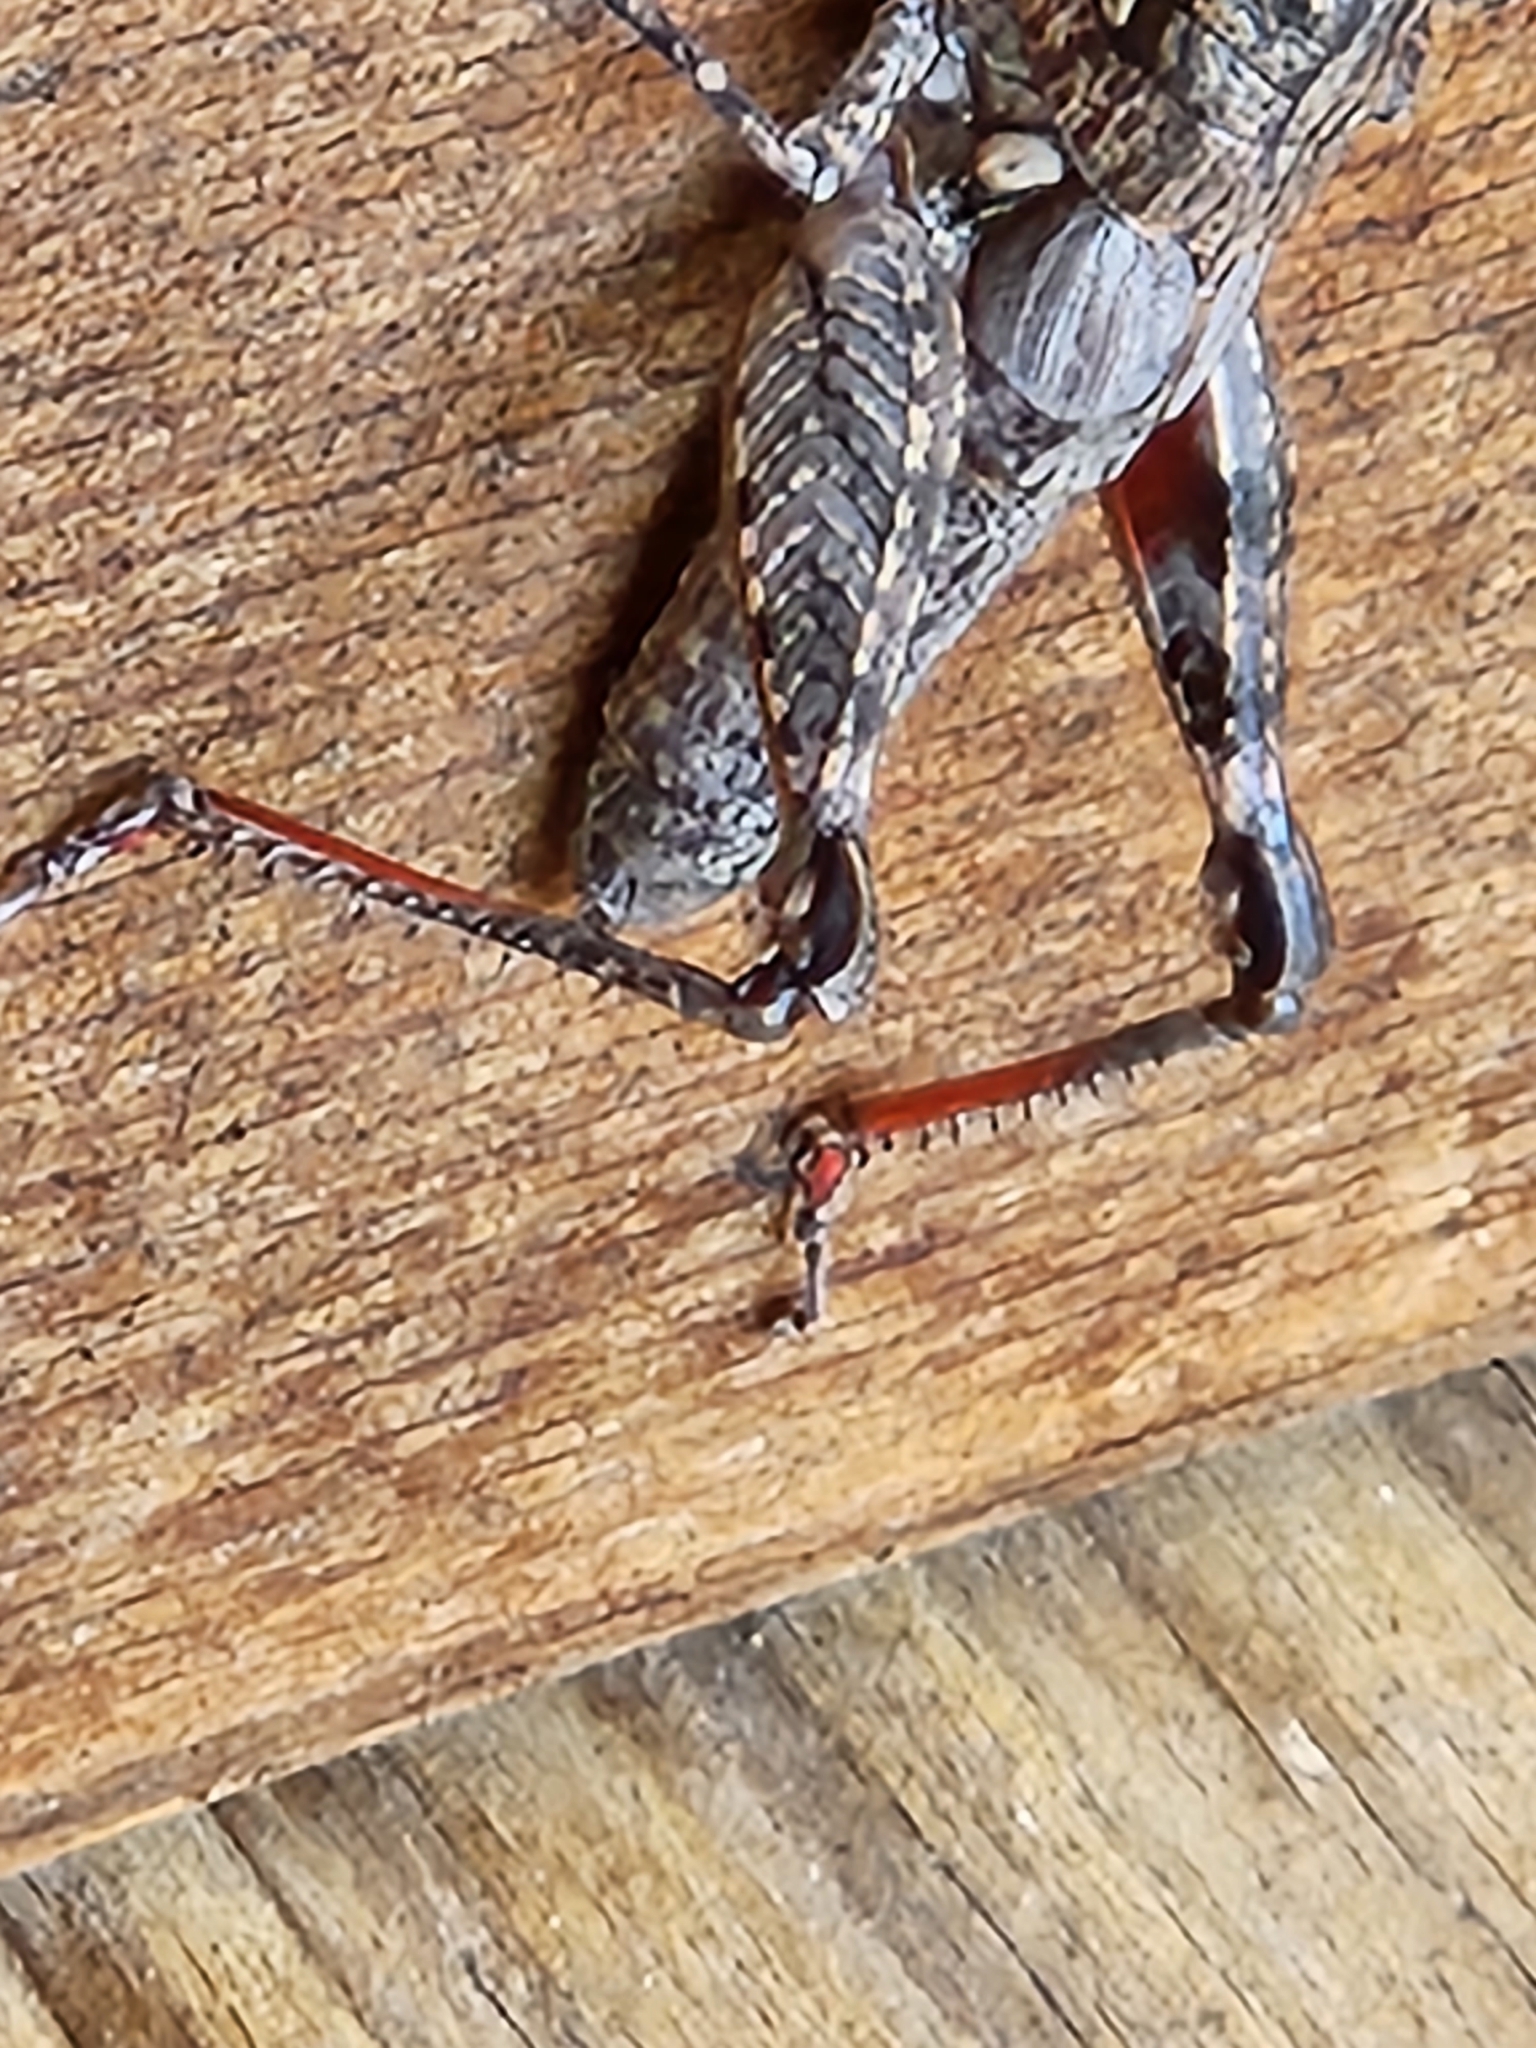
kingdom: Animalia
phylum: Arthropoda
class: Insecta
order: Orthoptera
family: Acrididae
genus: Agroecotettix
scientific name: Agroecotettix modestus
